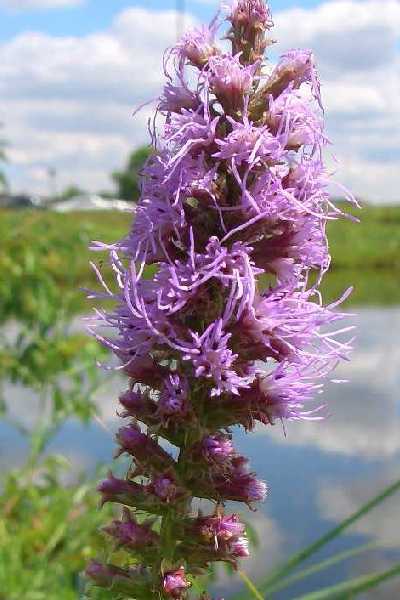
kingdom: Plantae
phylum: Tracheophyta
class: Magnoliopsida
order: Asterales
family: Asteraceae
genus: Liatris
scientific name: Liatris pycnostachya
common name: Cattail gayfeather
